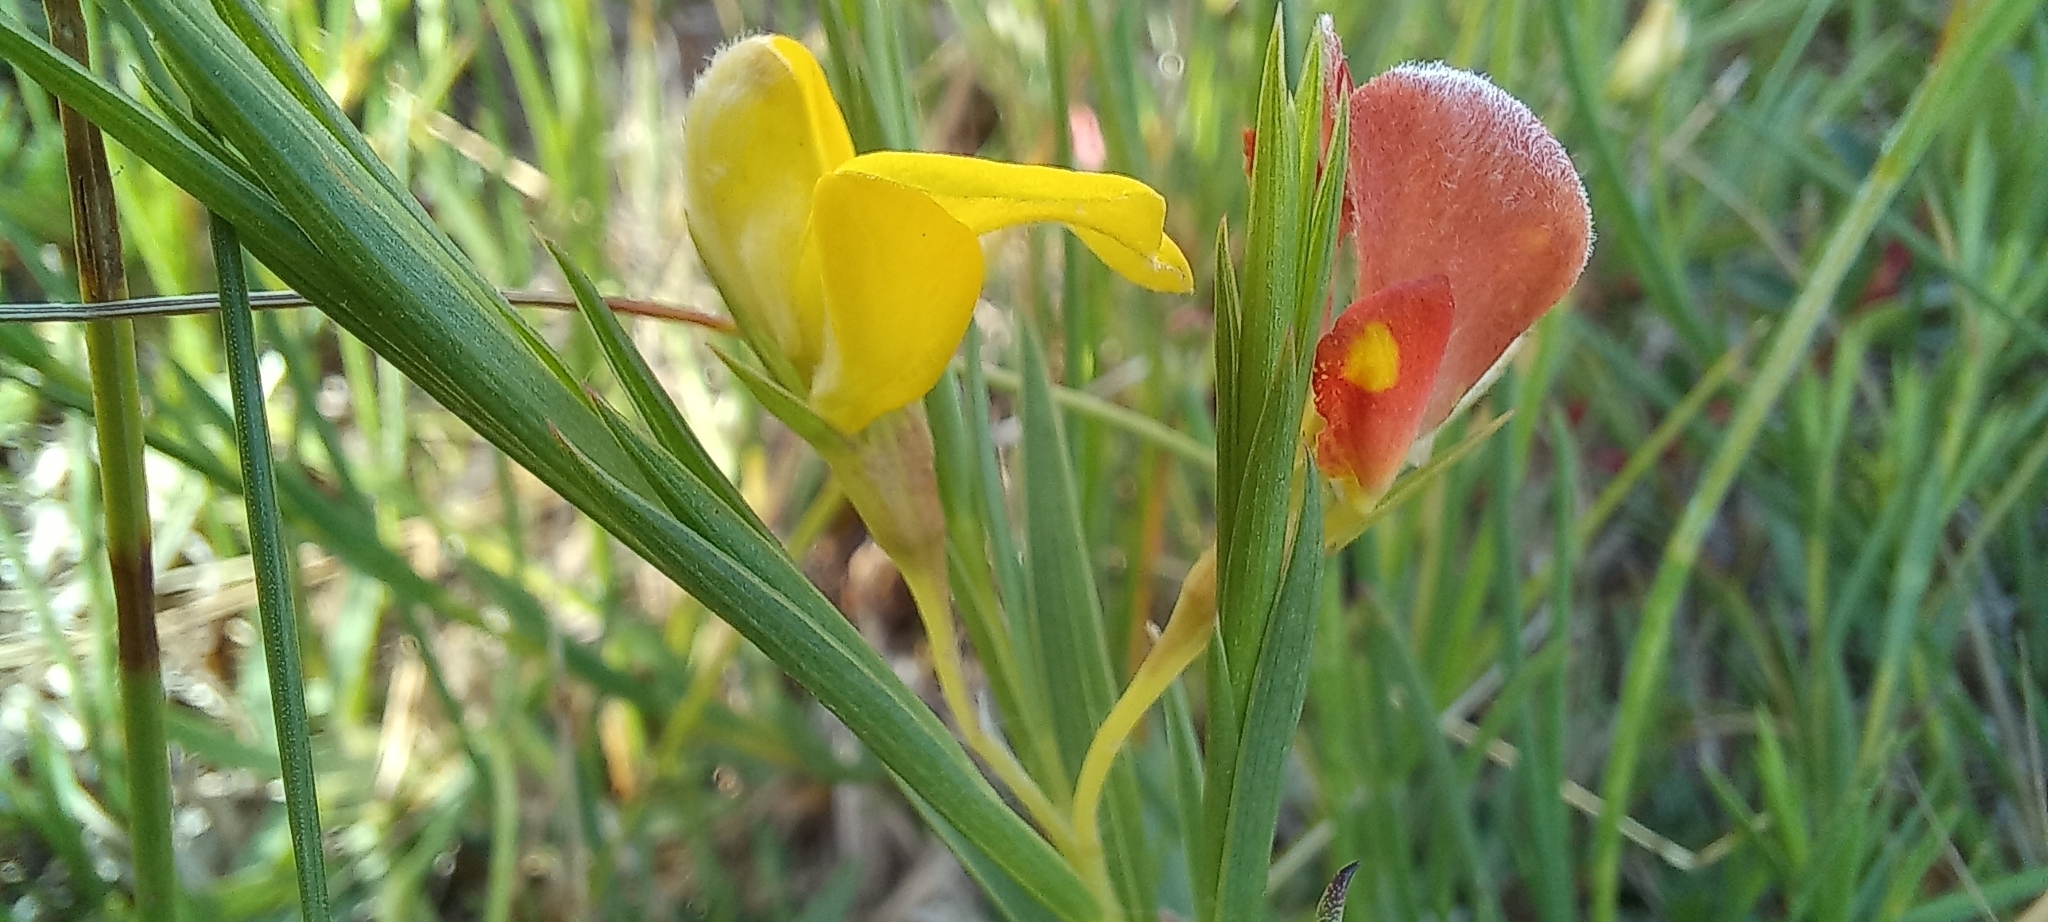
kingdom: Plantae
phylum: Tracheophyta
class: Magnoliopsida
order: Fabales
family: Fabaceae
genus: Aspalathus
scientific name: Aspalathus angustifolia
